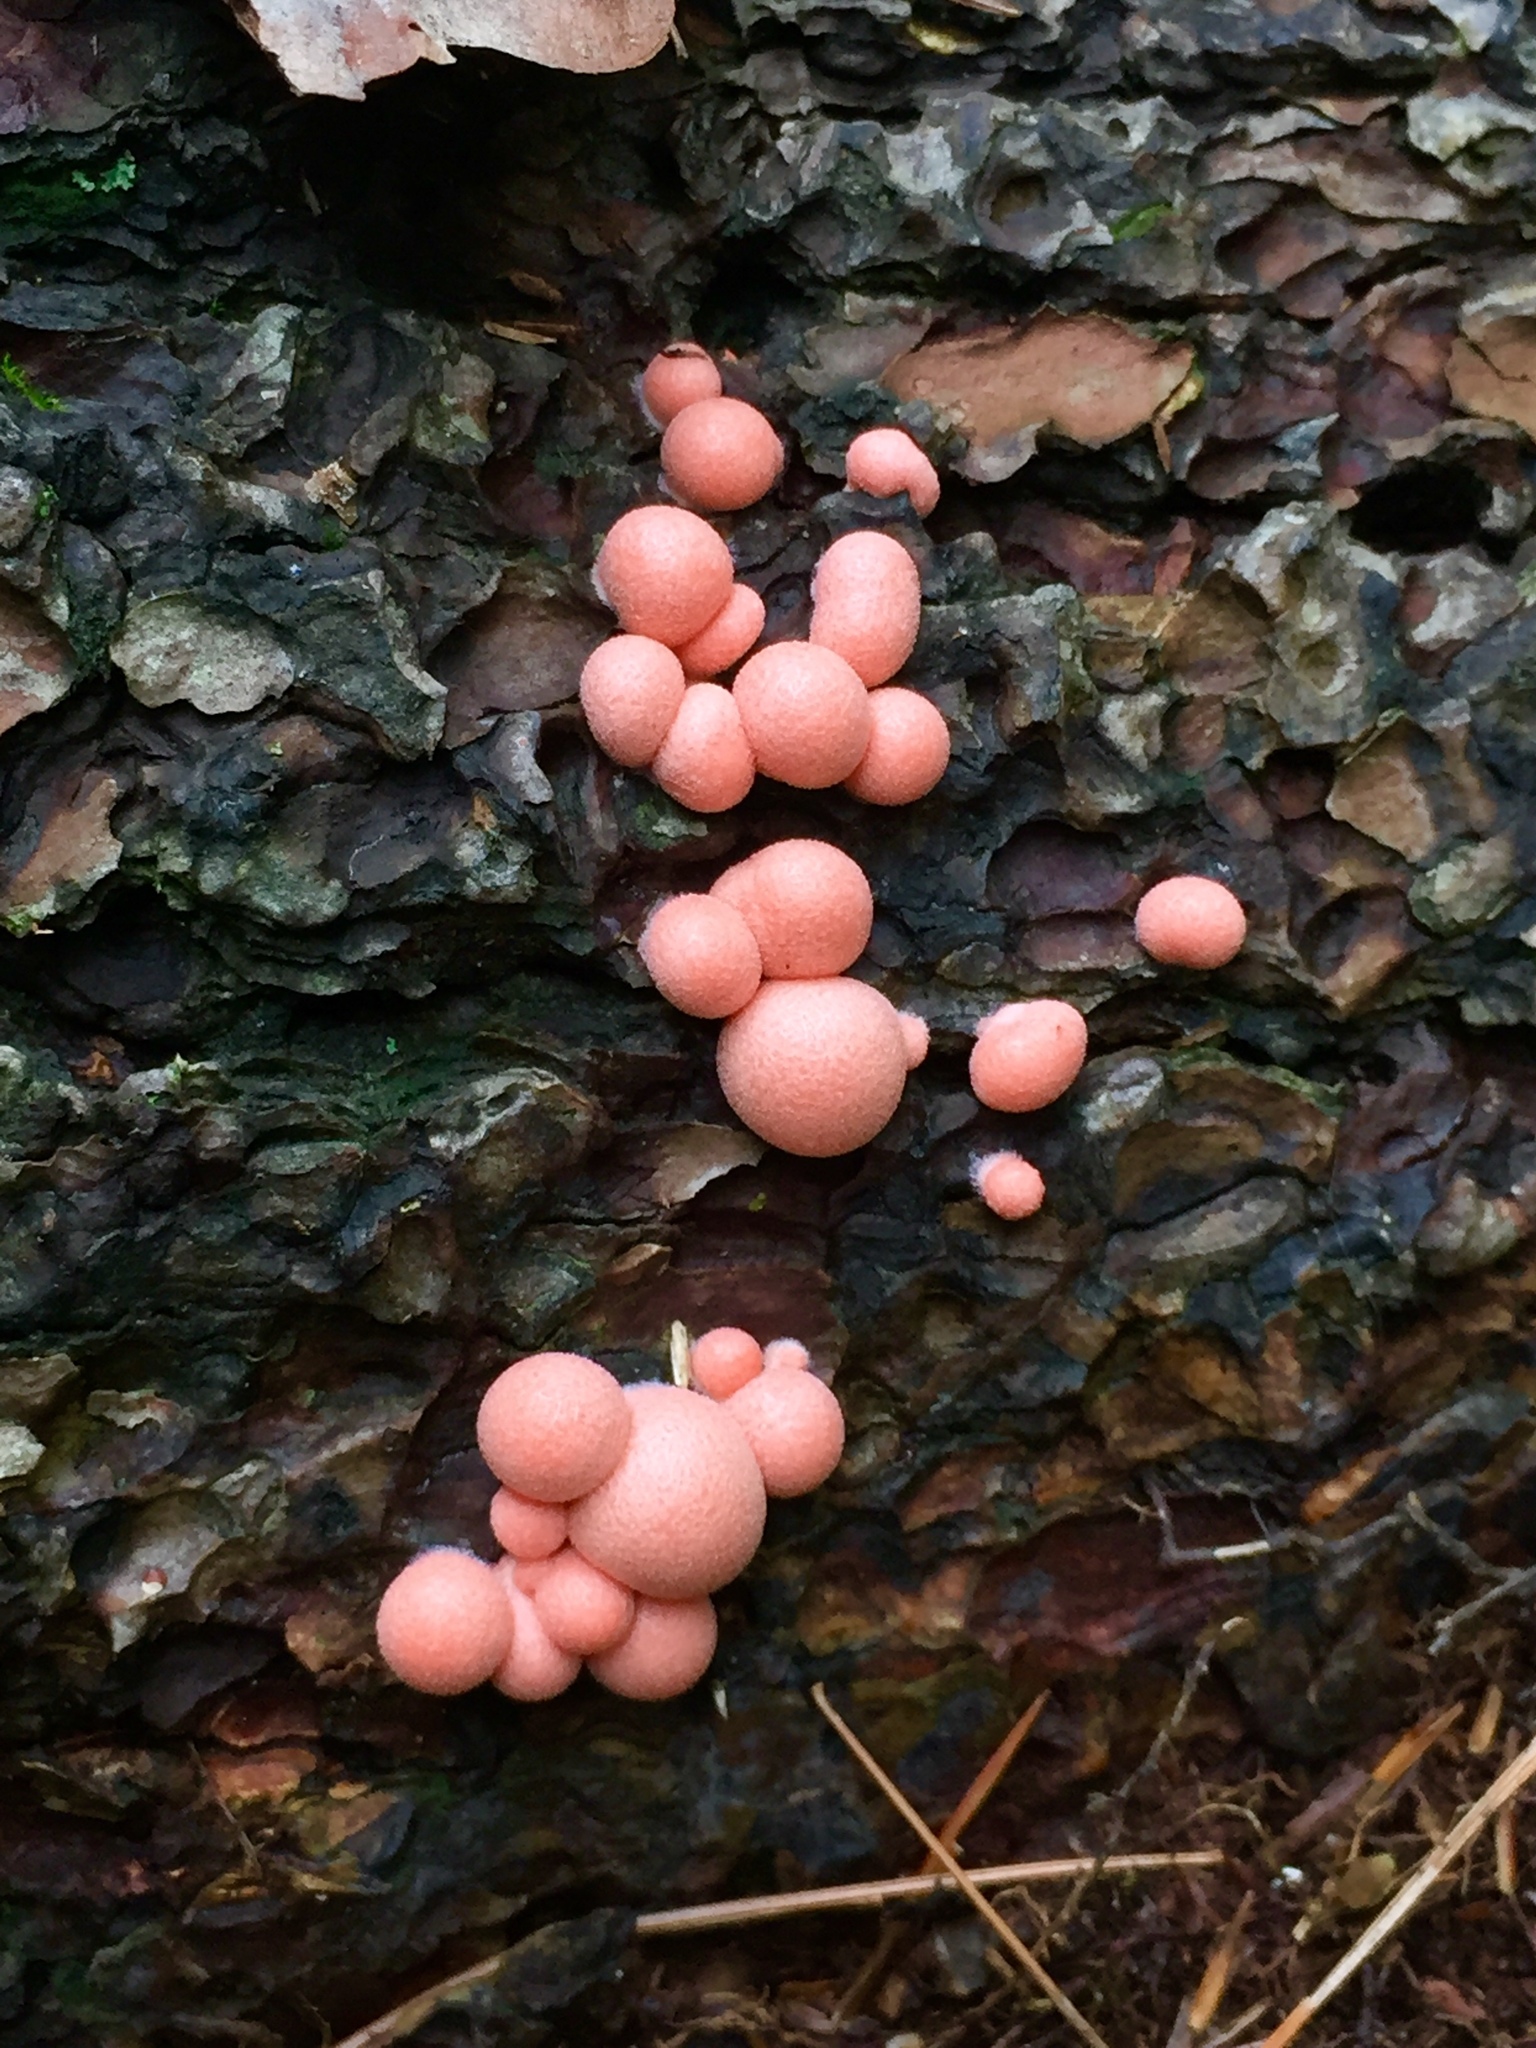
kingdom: Protozoa
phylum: Mycetozoa
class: Myxomycetes
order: Cribrariales
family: Tubiferaceae
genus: Lycogala
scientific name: Lycogala epidendrum
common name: Wolf's milk
